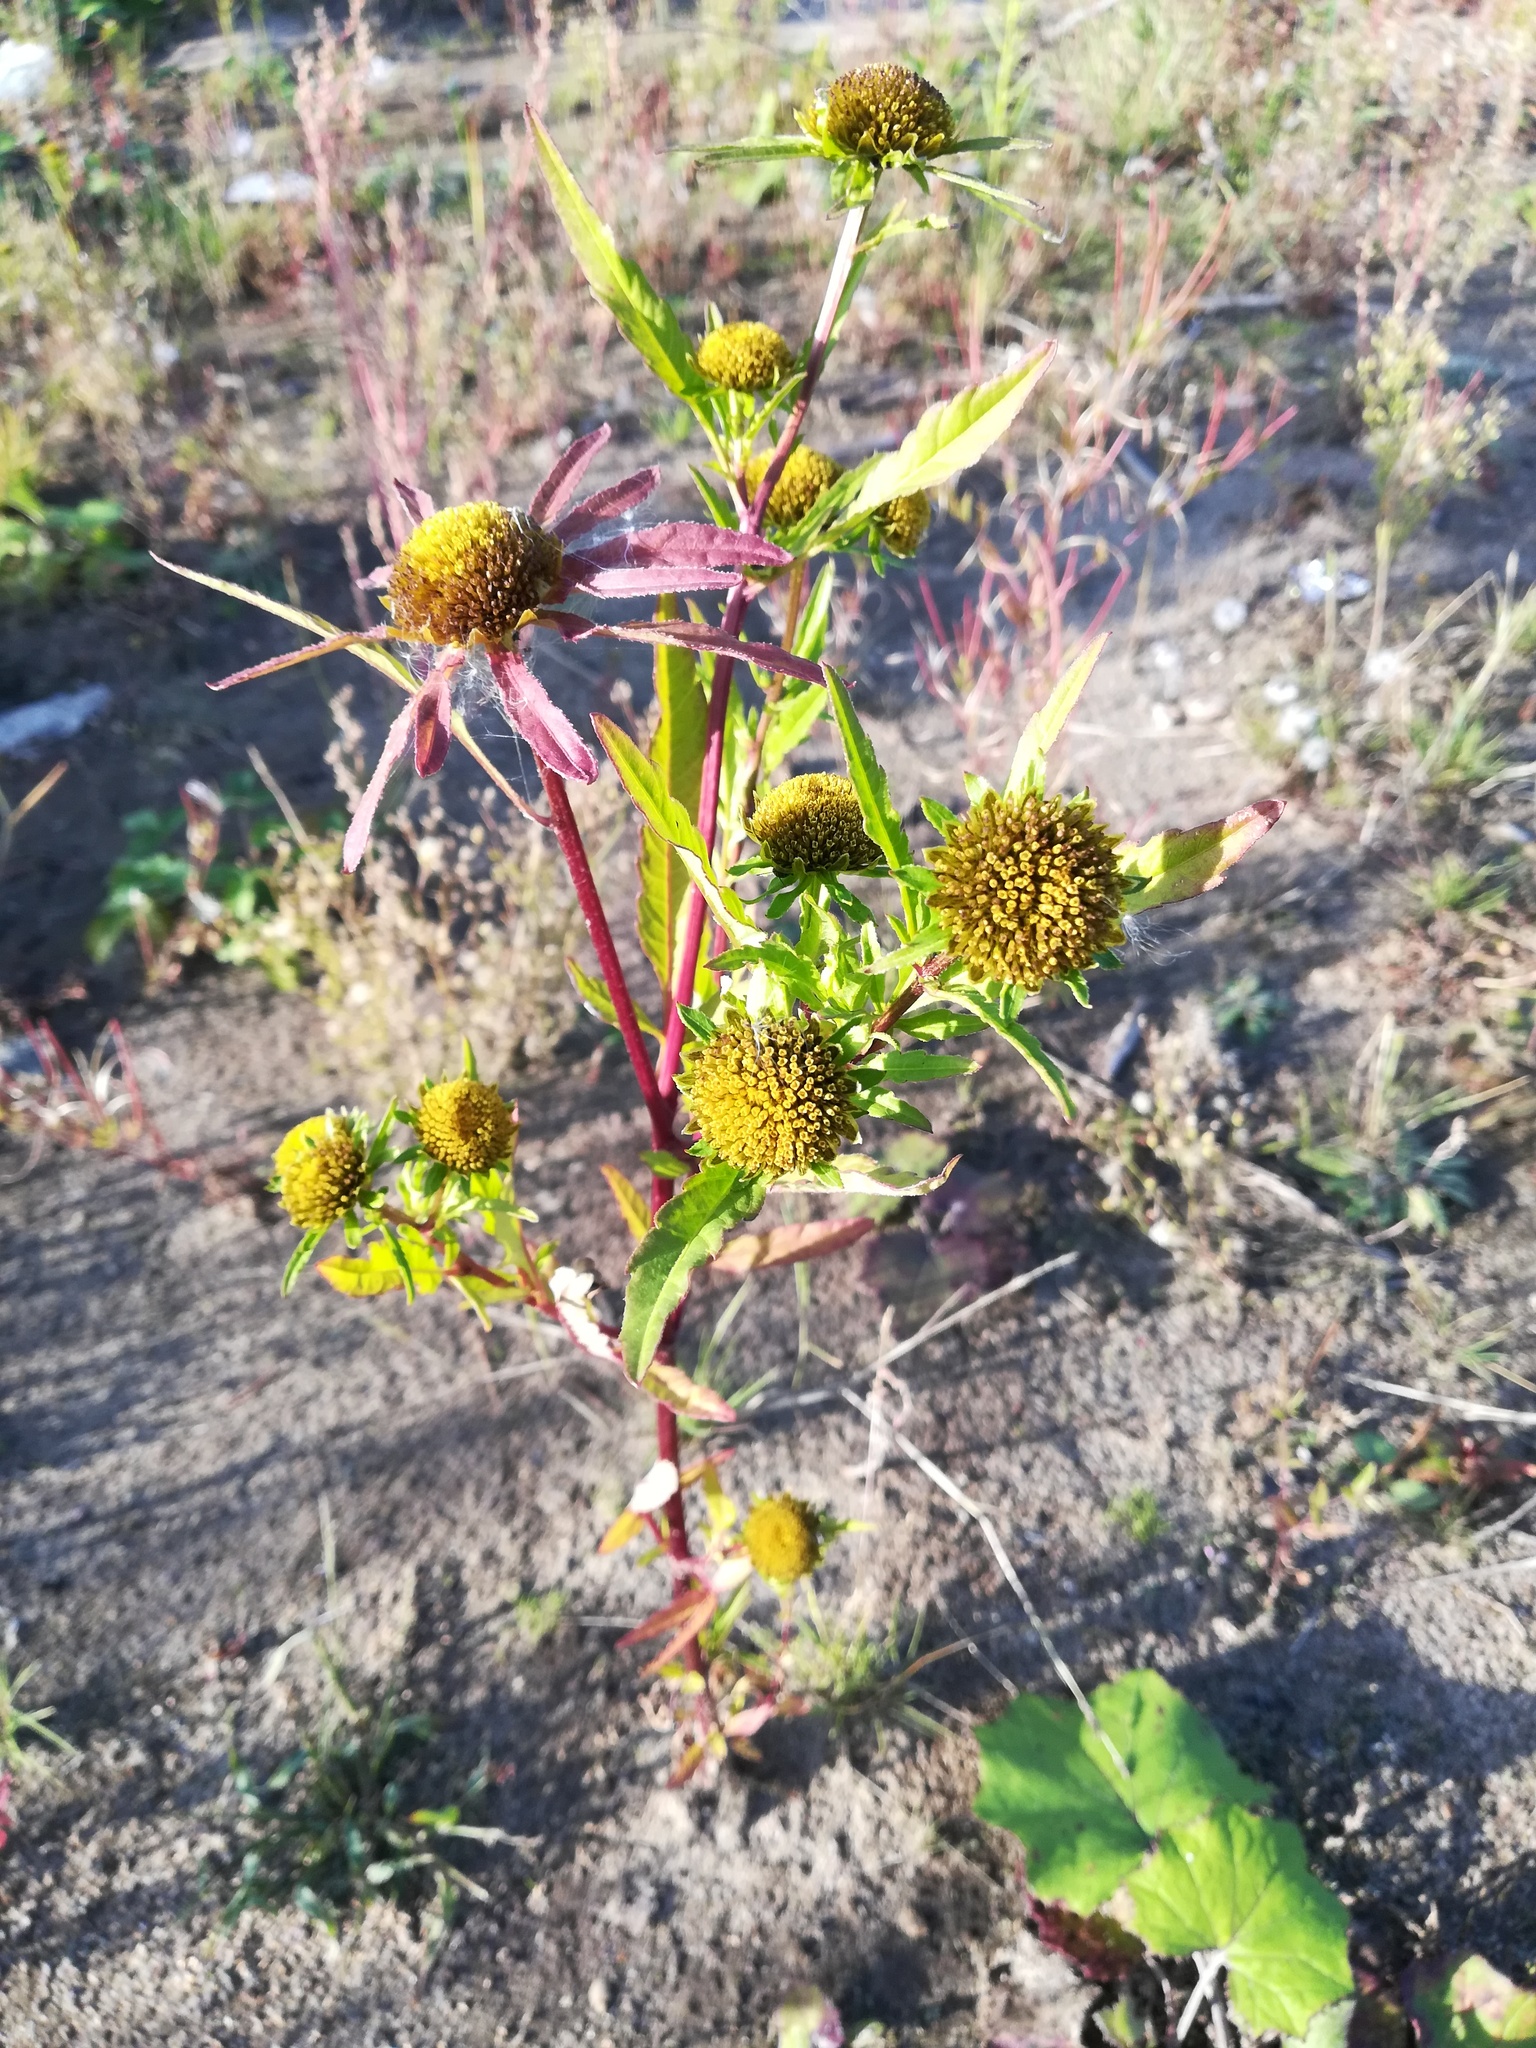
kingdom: Plantae
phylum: Tracheophyta
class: Magnoliopsida
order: Asterales
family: Asteraceae
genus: Bidens
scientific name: Bidens radiata
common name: Radiating bur-marigold
